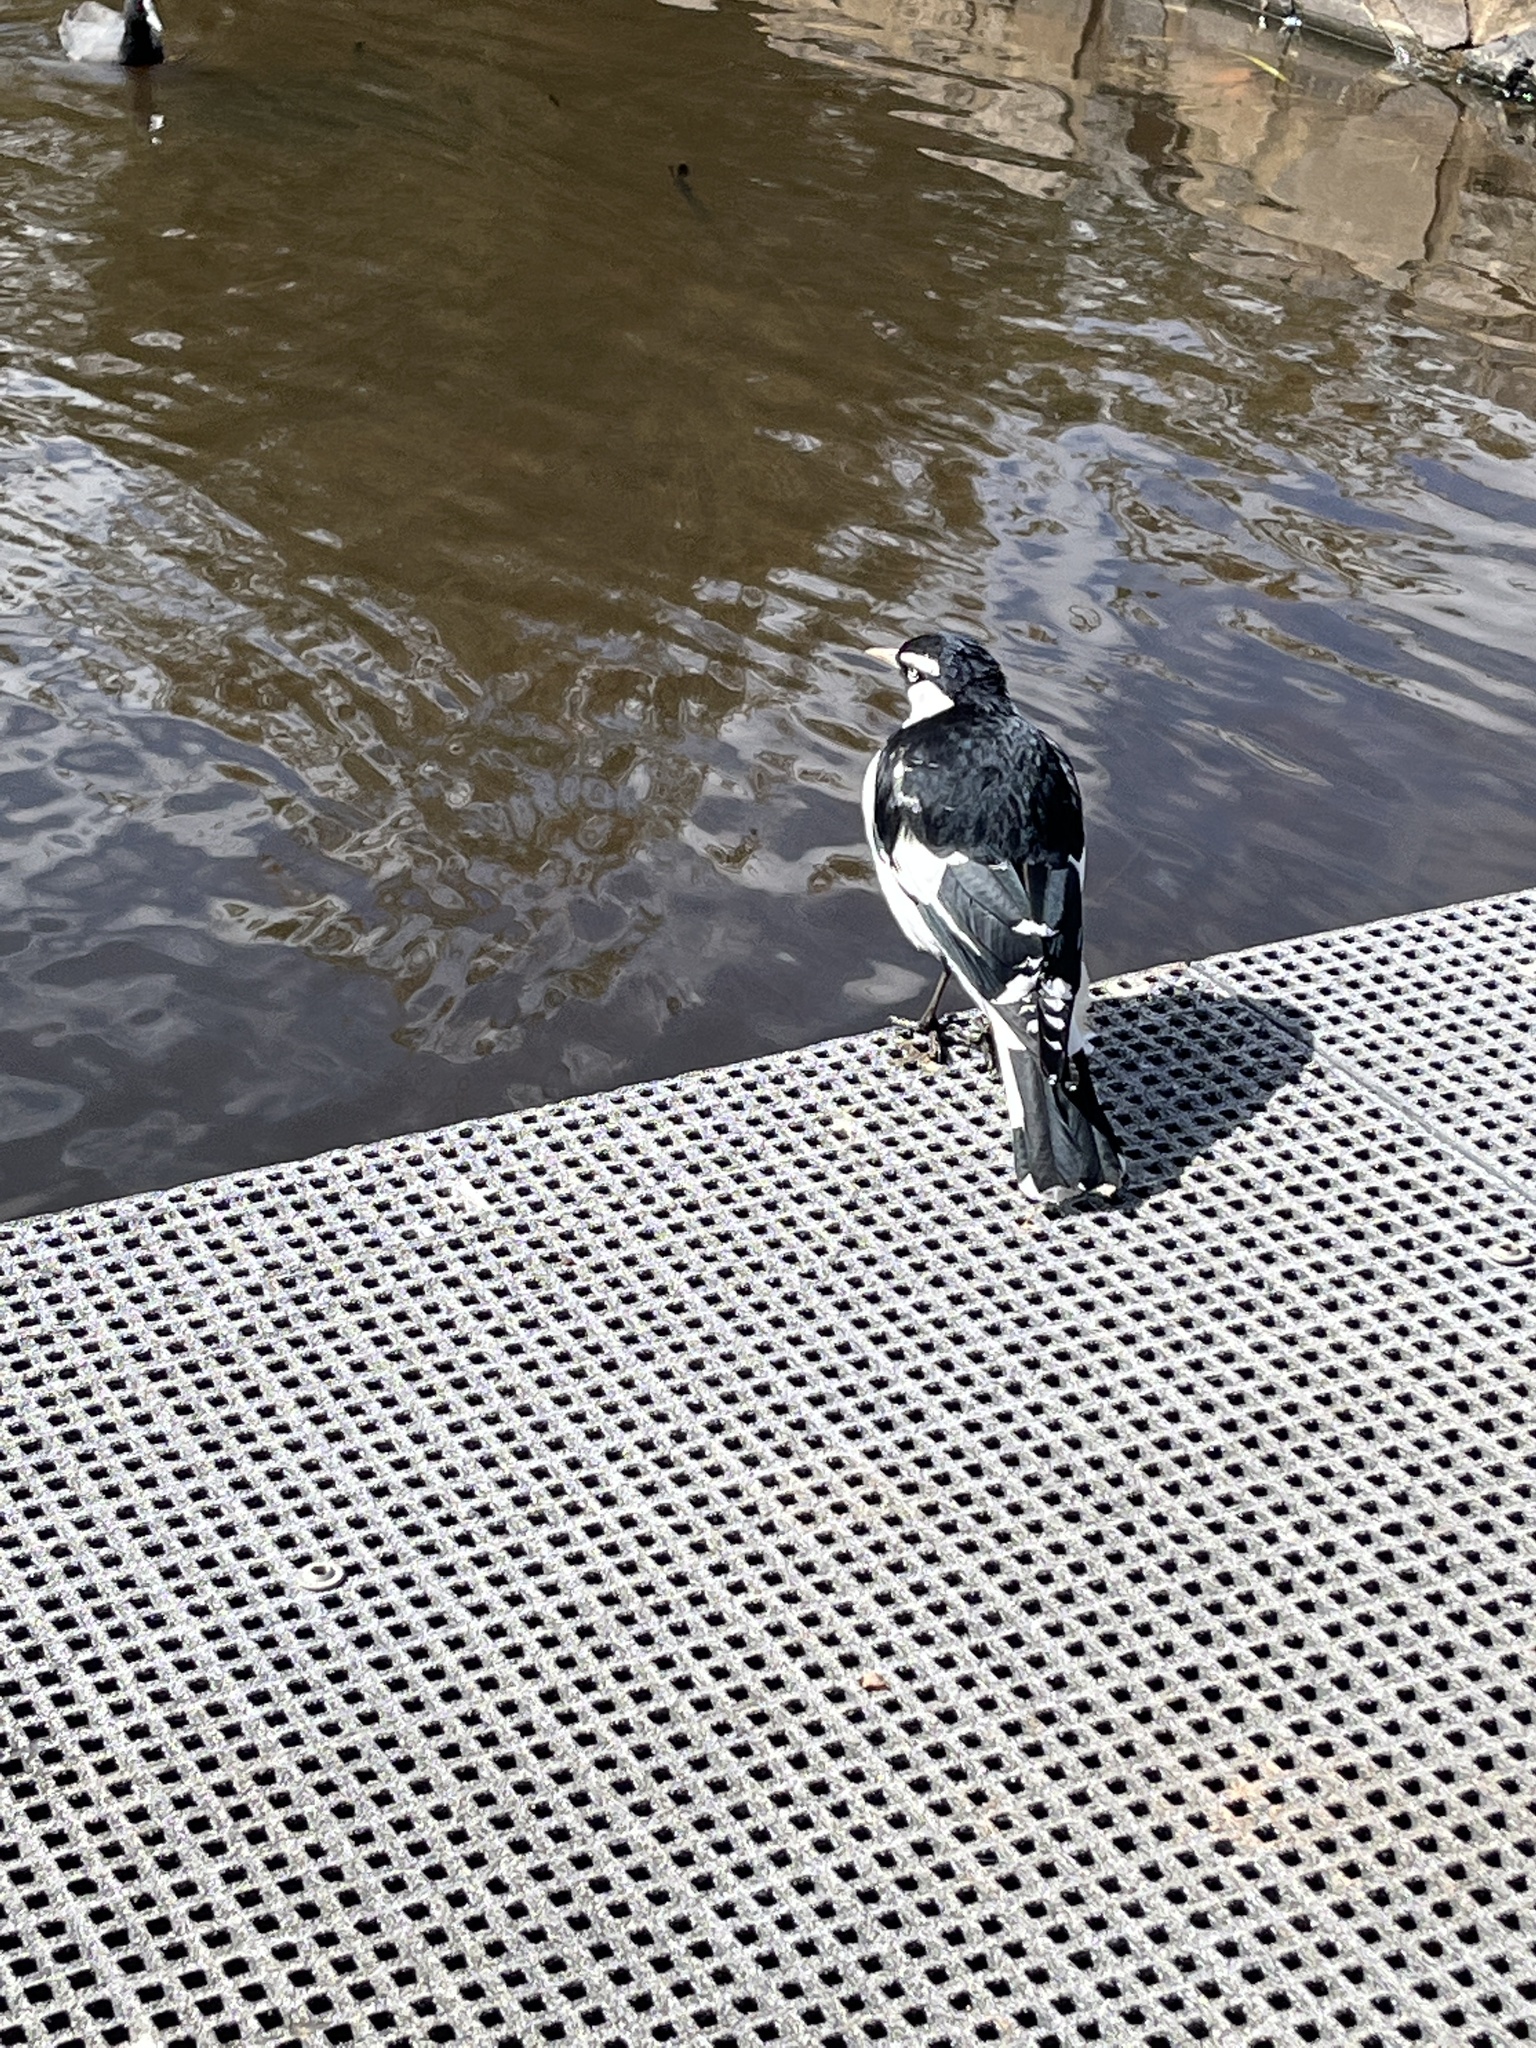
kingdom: Animalia
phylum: Chordata
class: Aves
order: Passeriformes
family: Monarchidae
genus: Grallina
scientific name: Grallina cyanoleuca
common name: Magpie-lark
